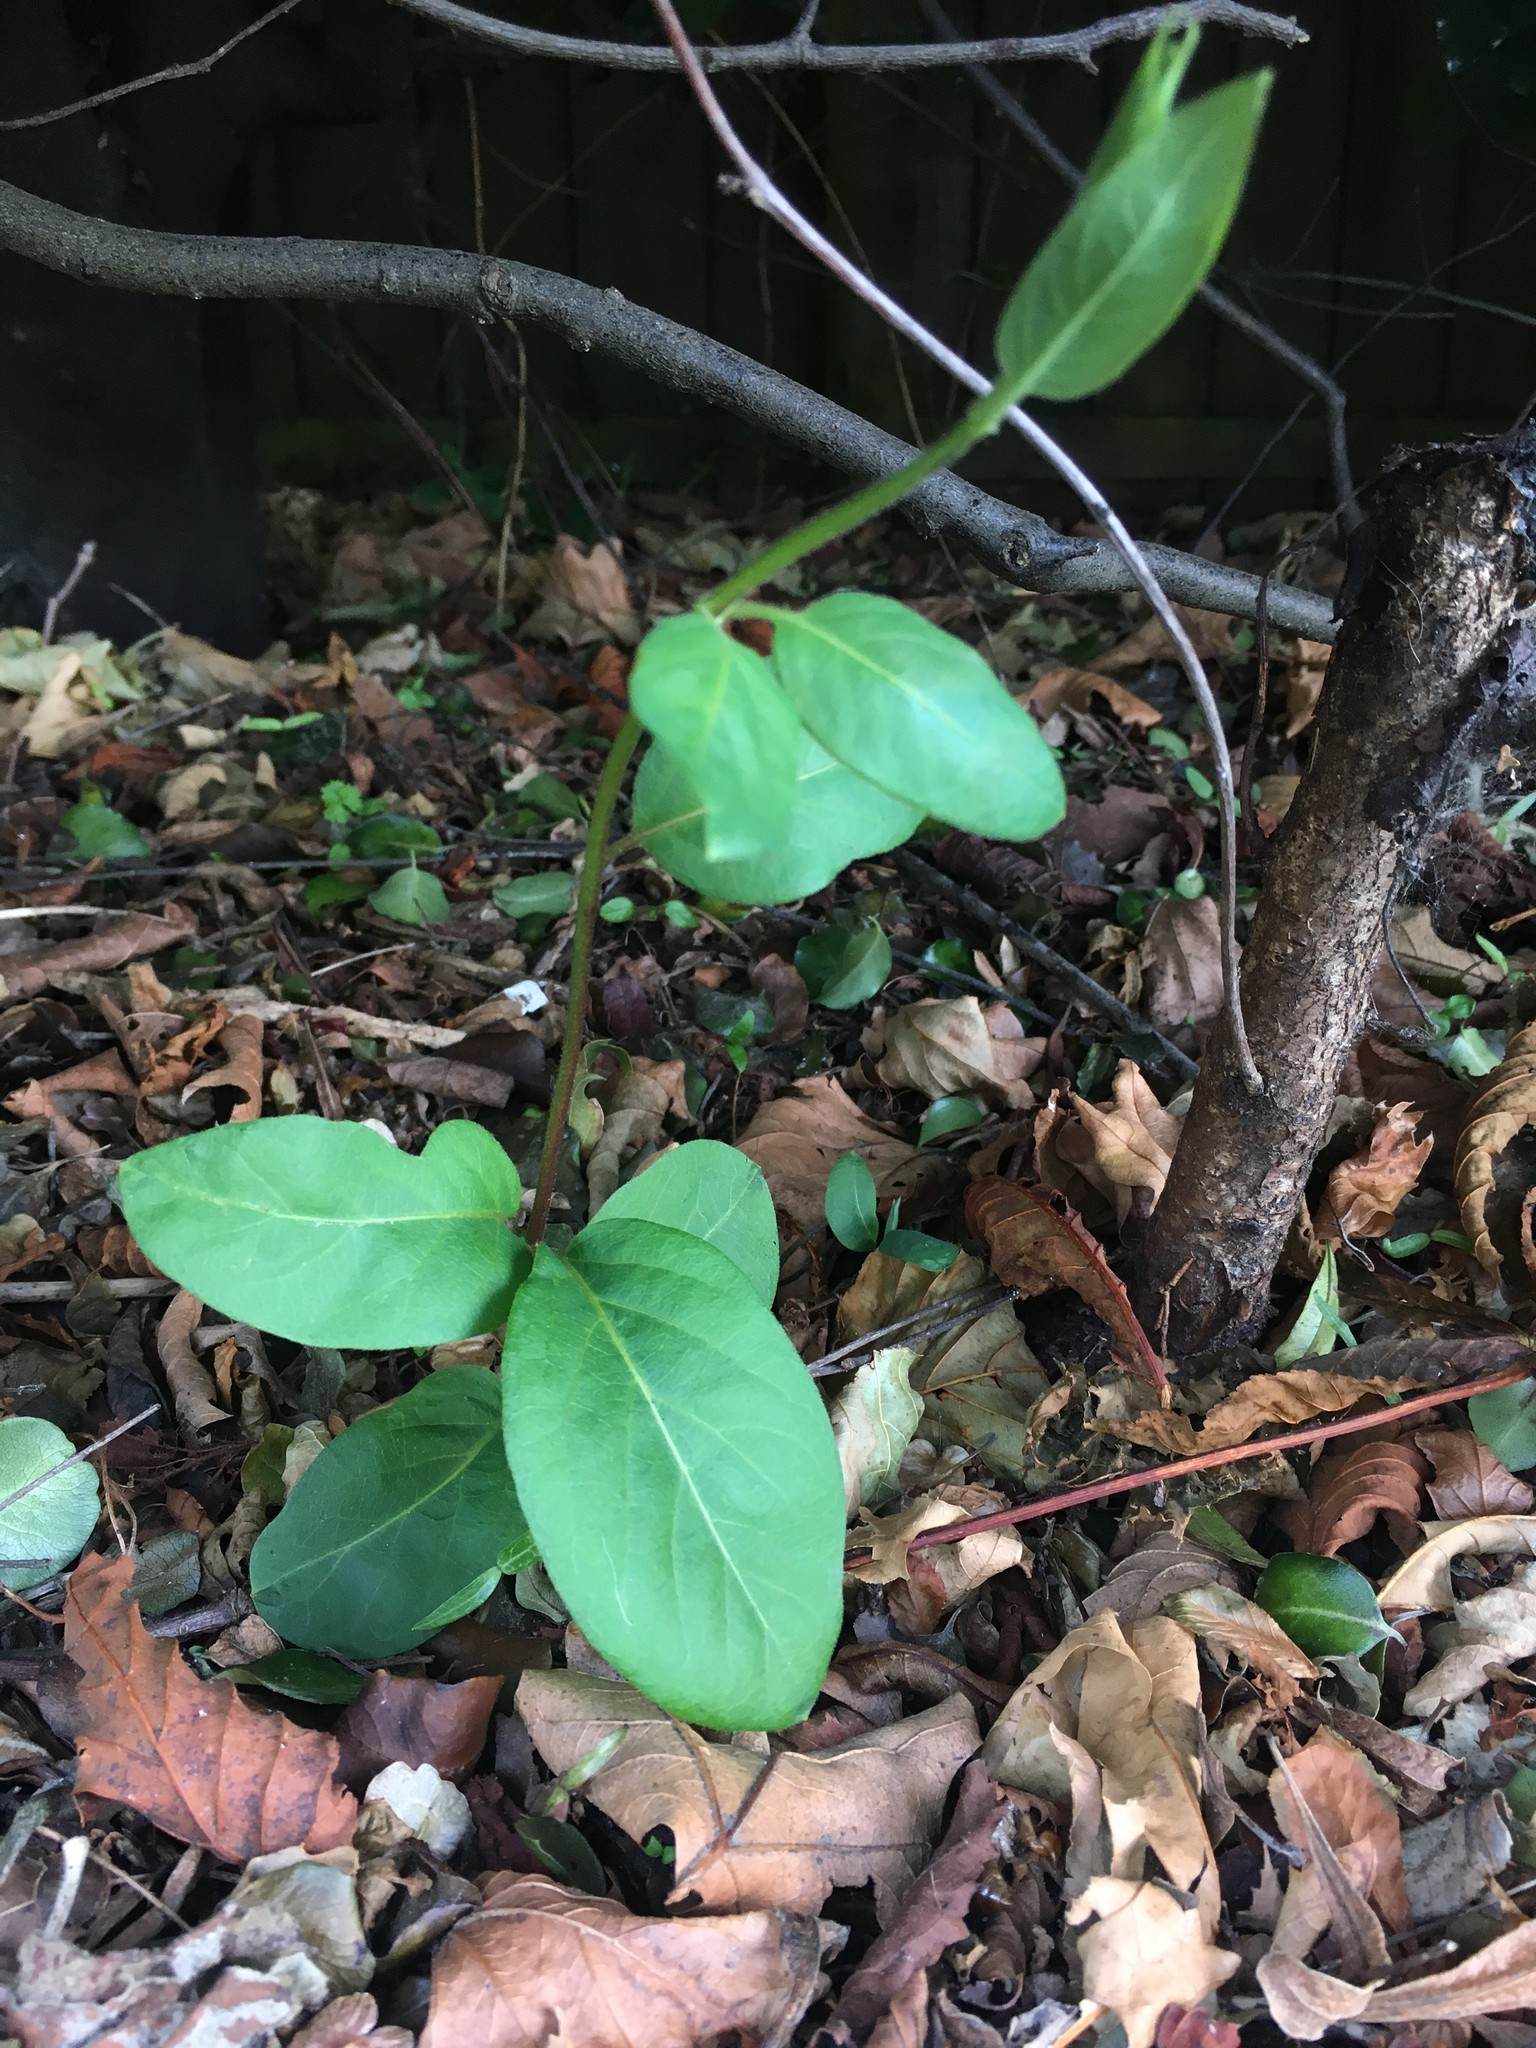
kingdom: Plantae
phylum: Tracheophyta
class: Magnoliopsida
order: Dipsacales
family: Caprifoliaceae
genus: Lonicera
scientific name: Lonicera japonica
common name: Japanese honeysuckle
